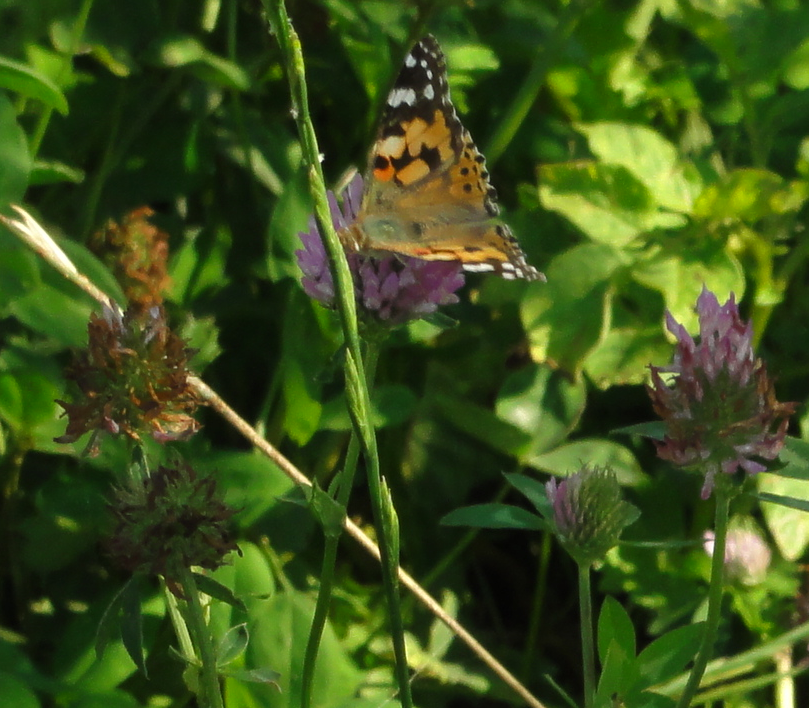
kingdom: Animalia
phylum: Arthropoda
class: Insecta
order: Lepidoptera
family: Nymphalidae
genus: Vanessa
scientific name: Vanessa cardui
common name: Painted lady
